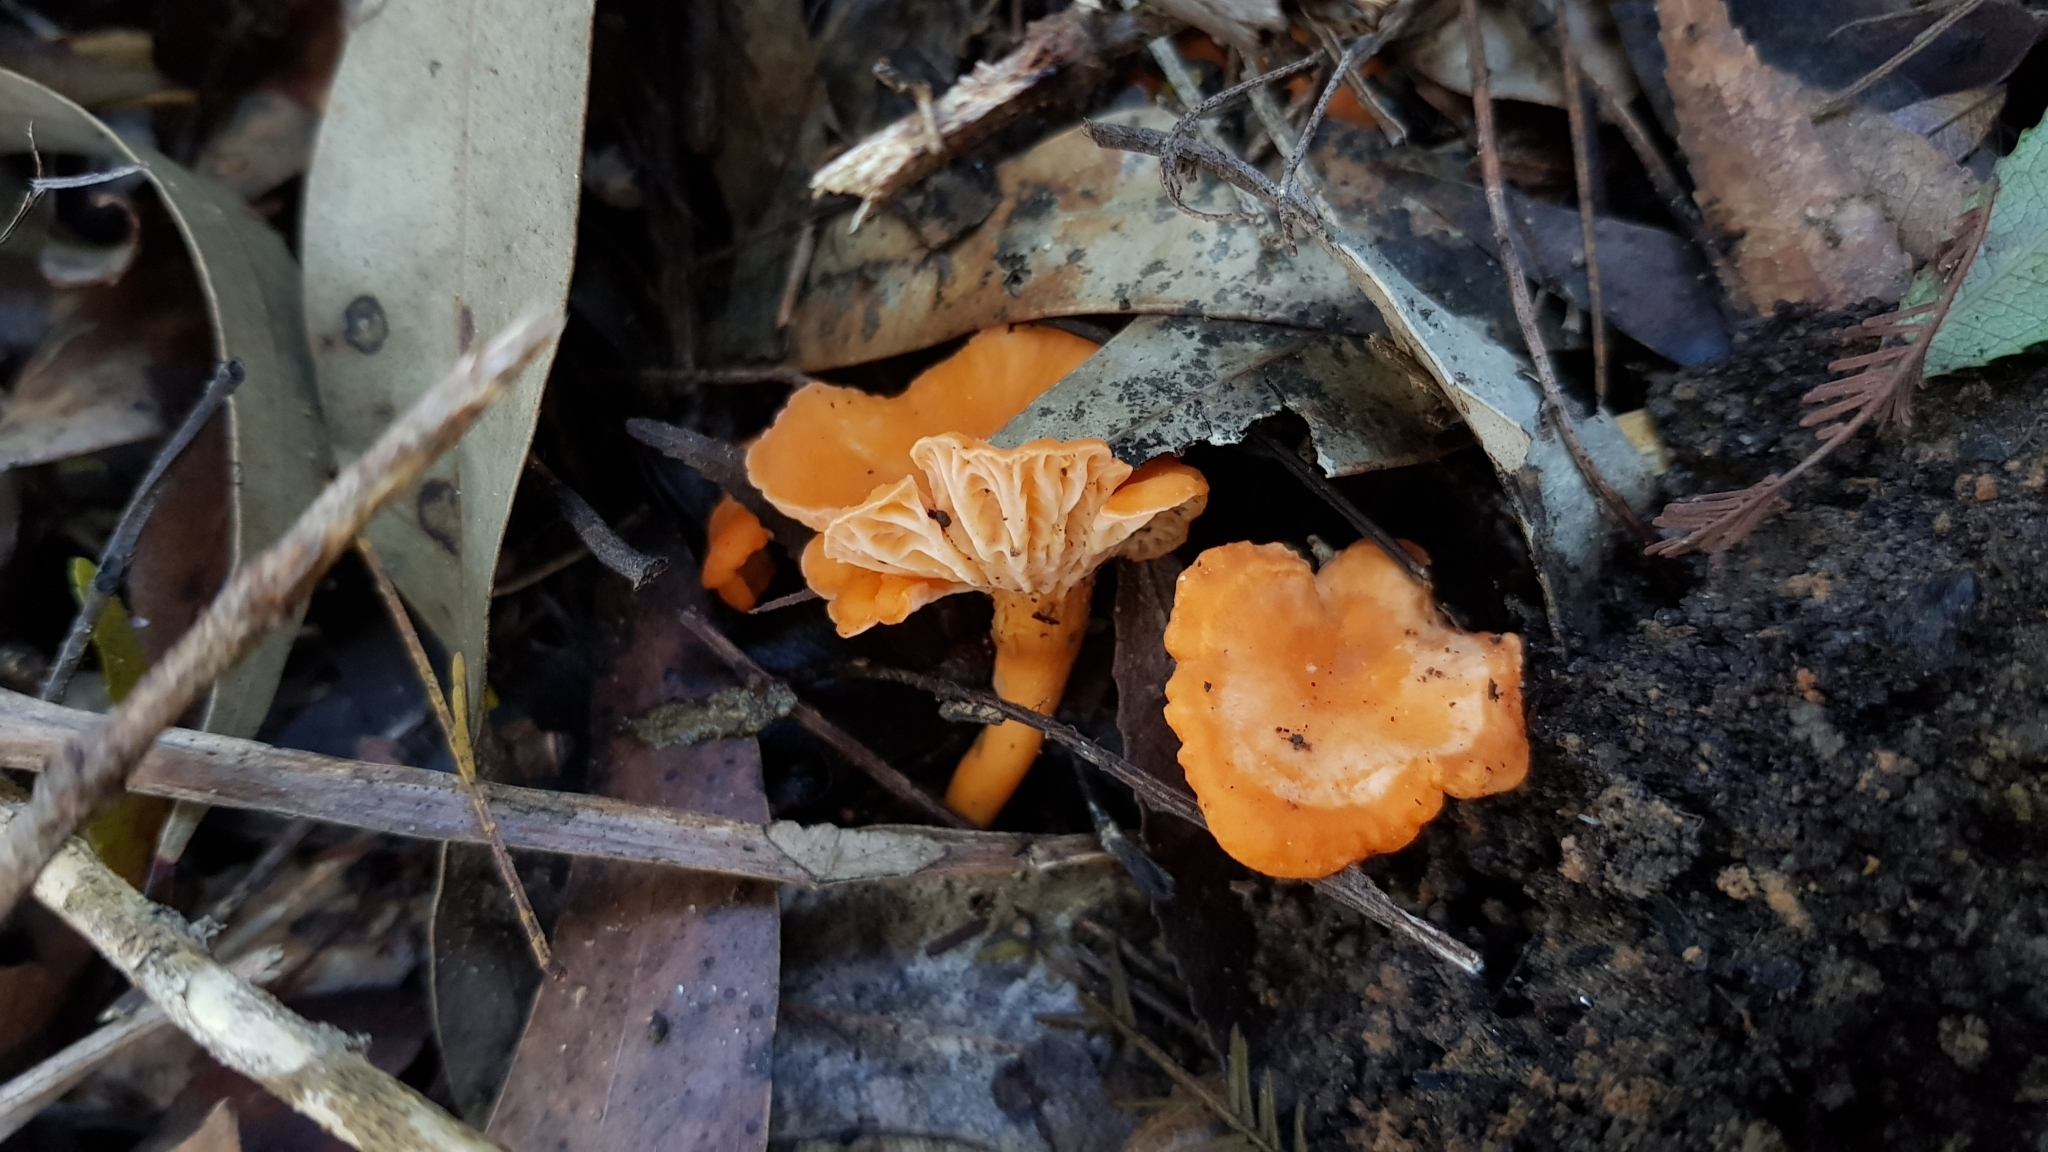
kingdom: Fungi
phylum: Basidiomycota
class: Agaricomycetes
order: Cantharellales
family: Hydnaceae
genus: Cantharellus
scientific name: Cantharellus
